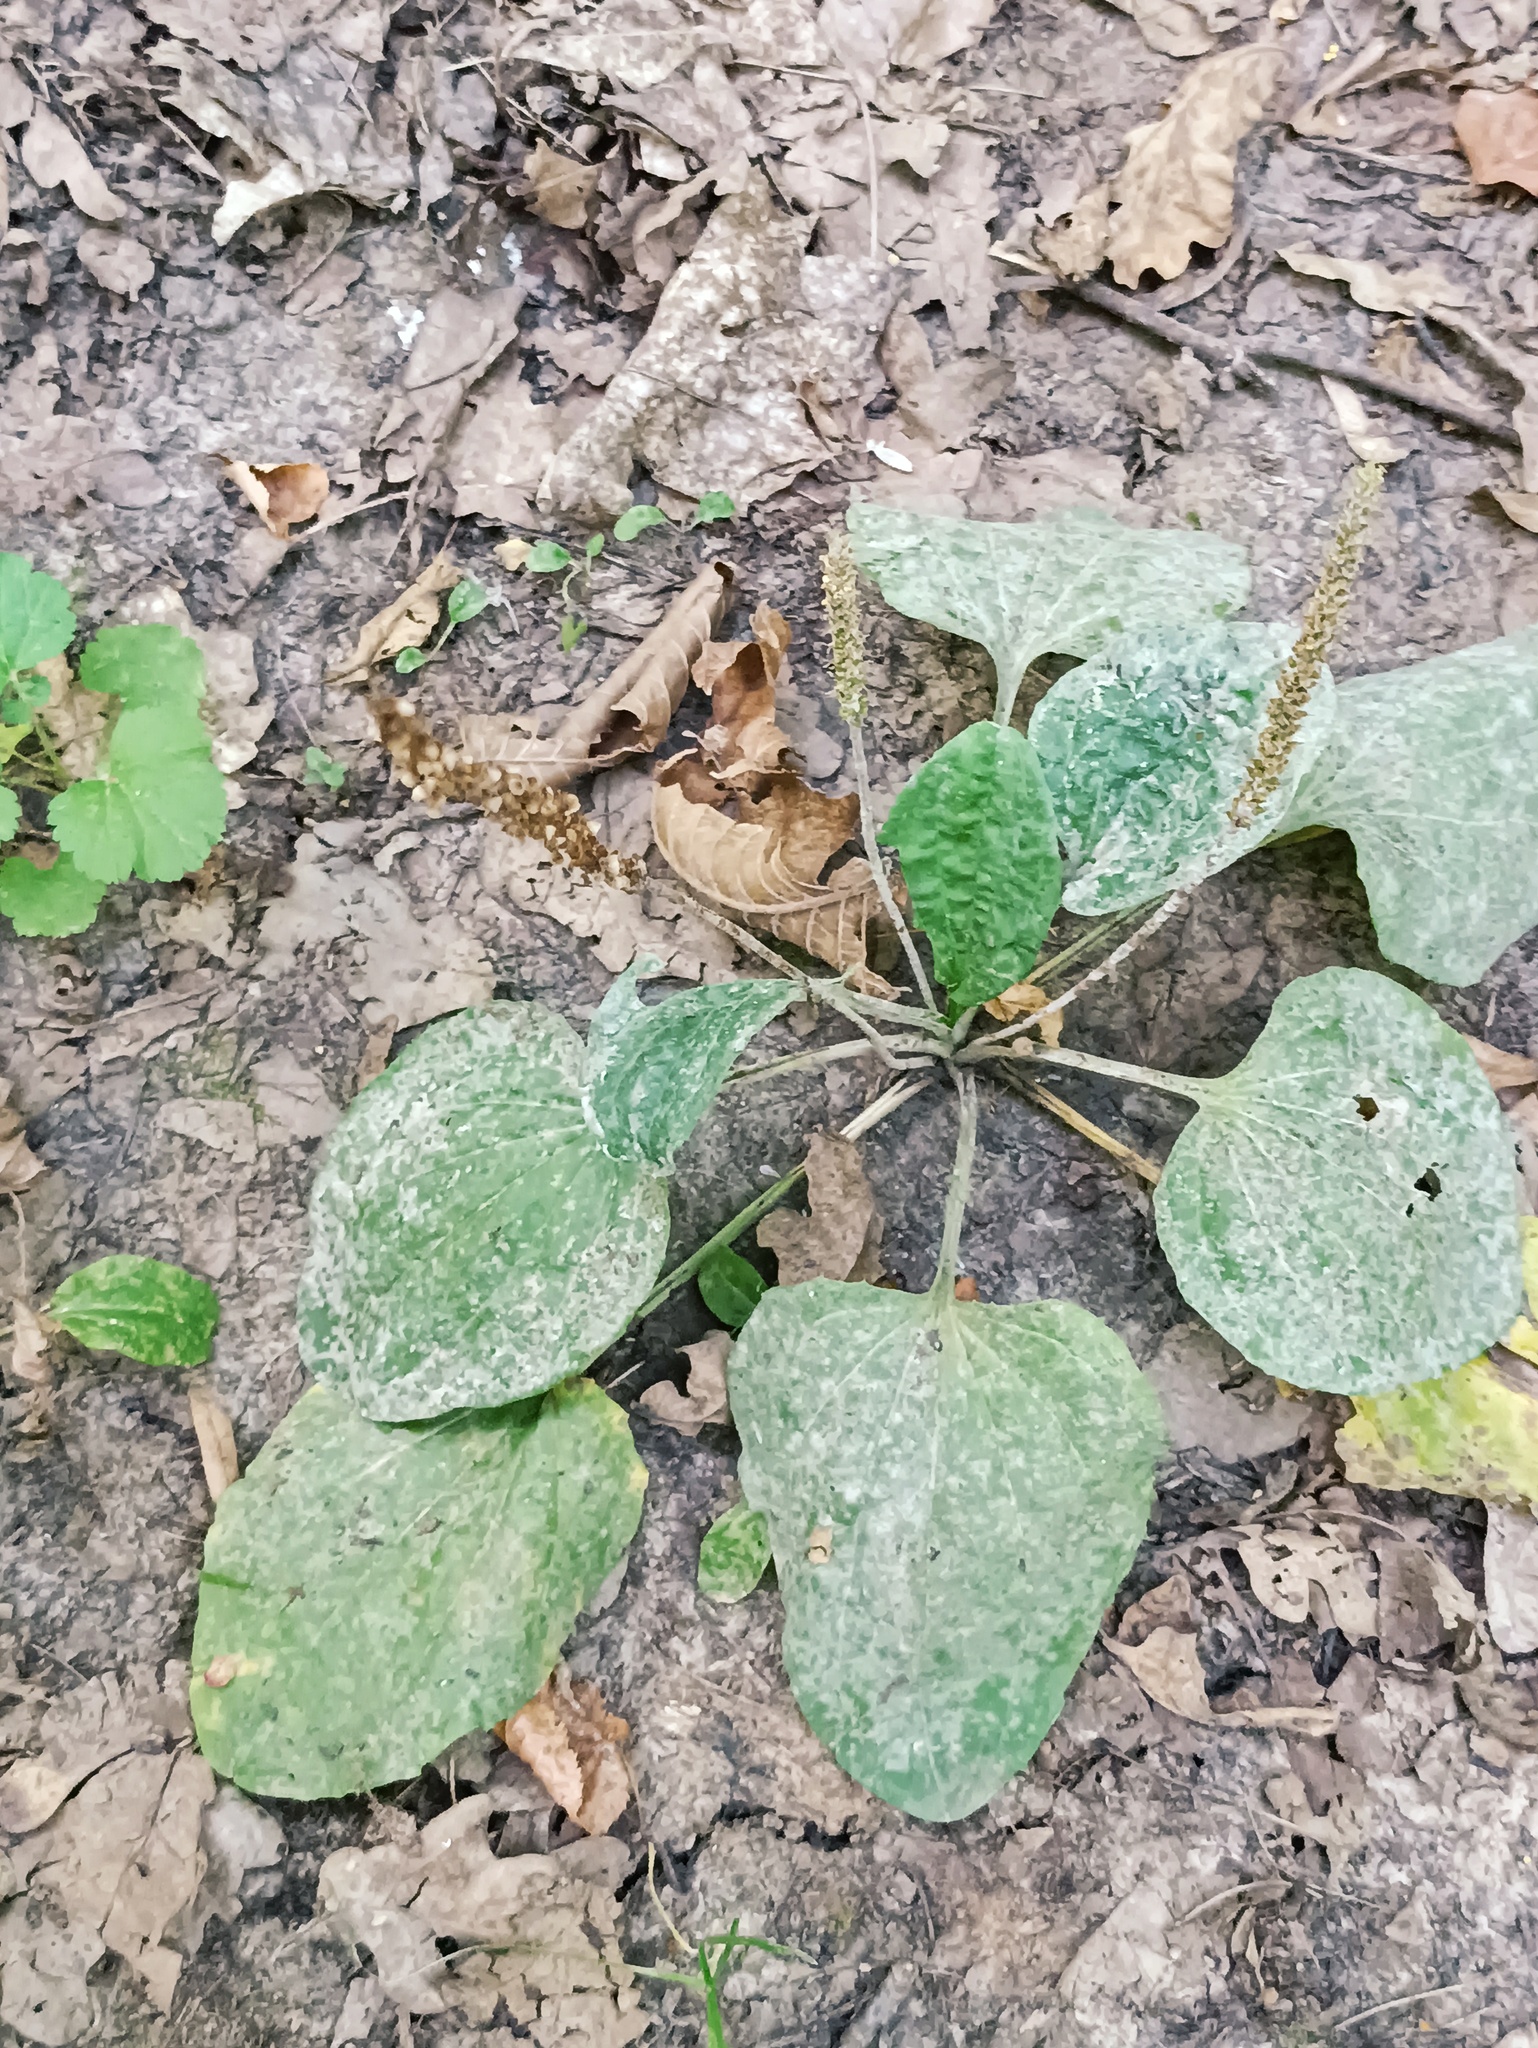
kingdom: Plantae
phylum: Tracheophyta
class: Magnoliopsida
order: Lamiales
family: Plantaginaceae
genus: Plantago
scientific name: Plantago major
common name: Common plantain
